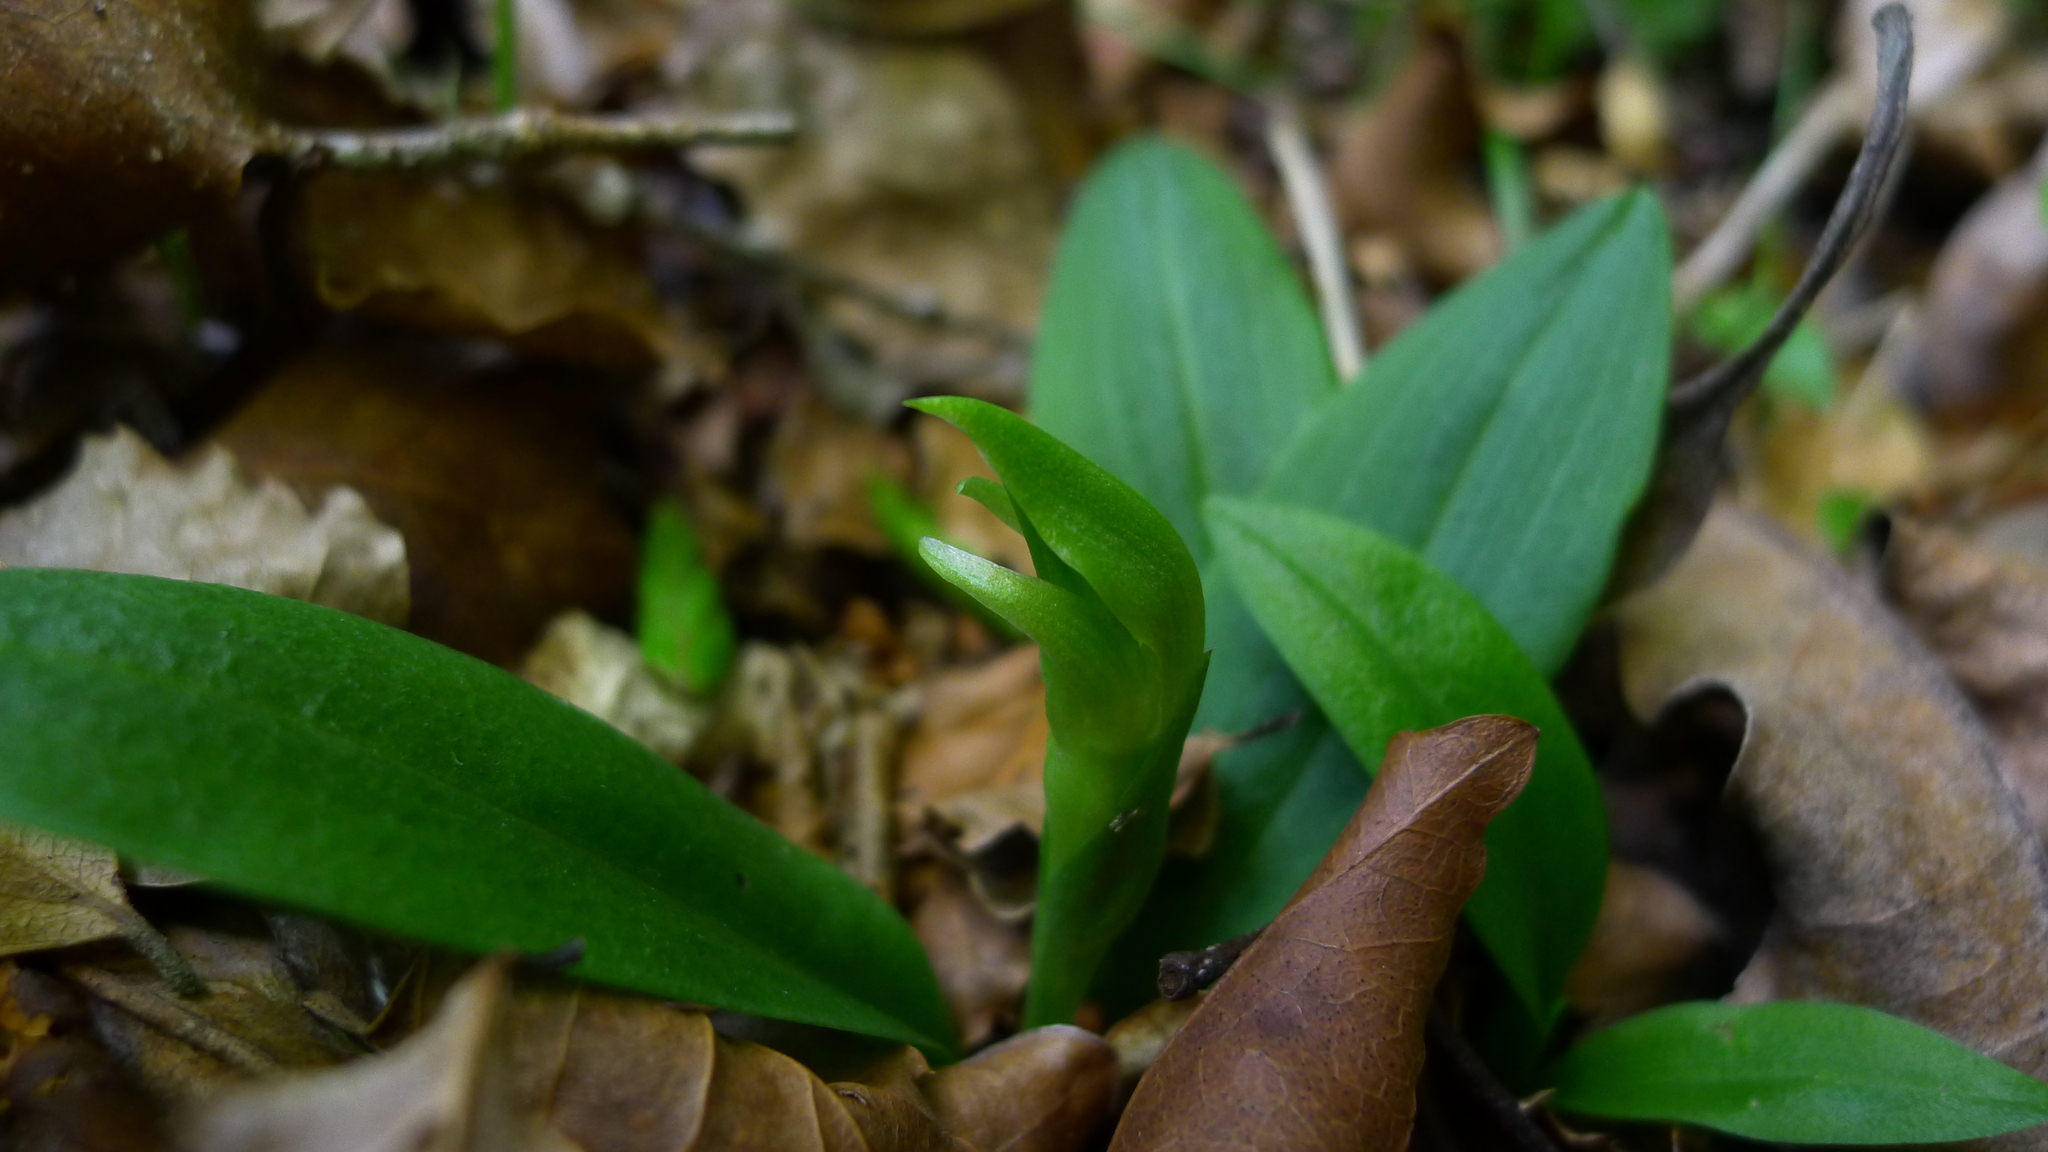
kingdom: Plantae
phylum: Tracheophyta
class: Liliopsida
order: Asparagales
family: Orchidaceae
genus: Chiloglottis
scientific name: Chiloglottis cornuta
